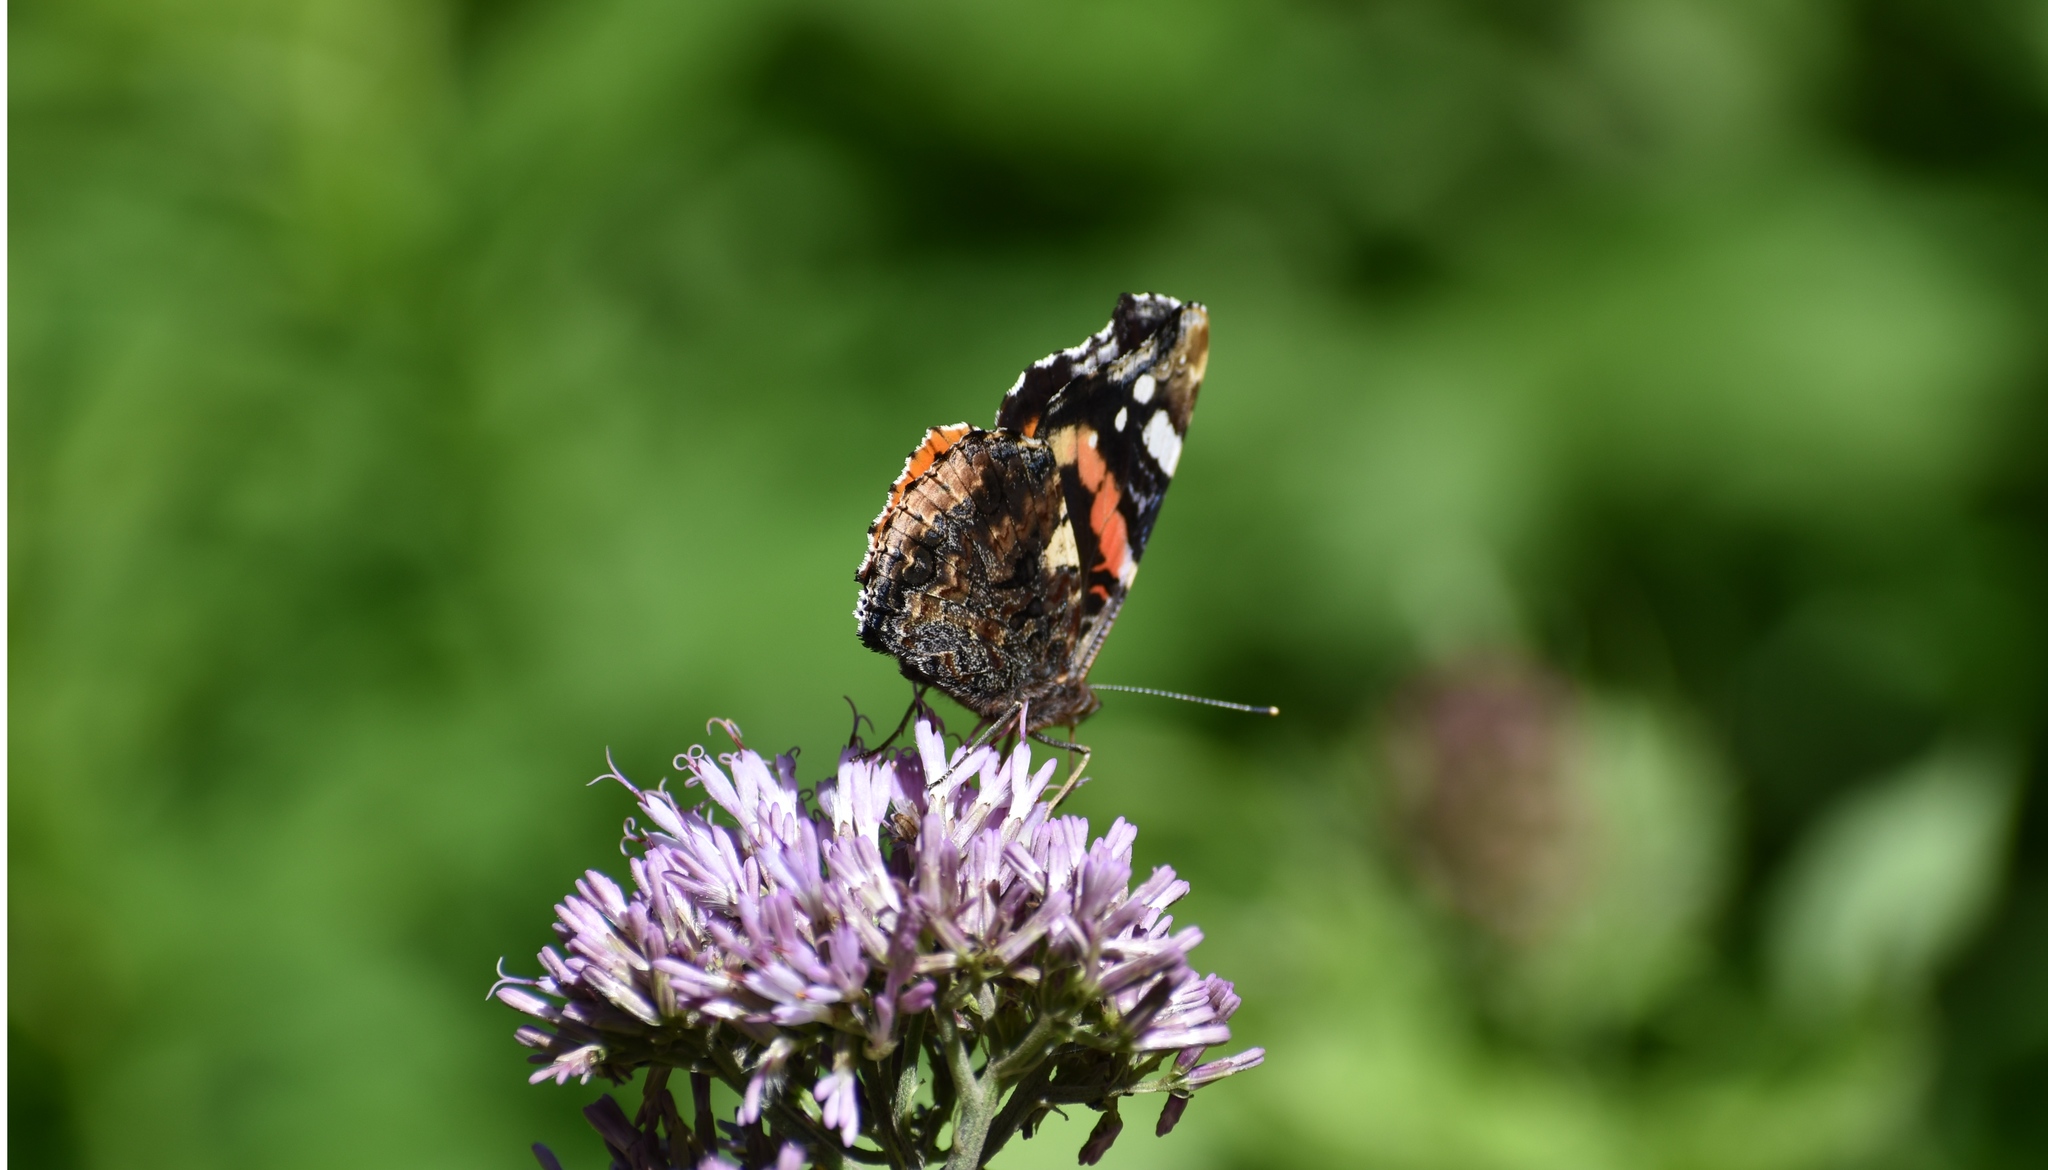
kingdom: Animalia
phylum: Arthropoda
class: Insecta
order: Lepidoptera
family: Nymphalidae
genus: Vanessa
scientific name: Vanessa atalanta
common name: Red admiral
